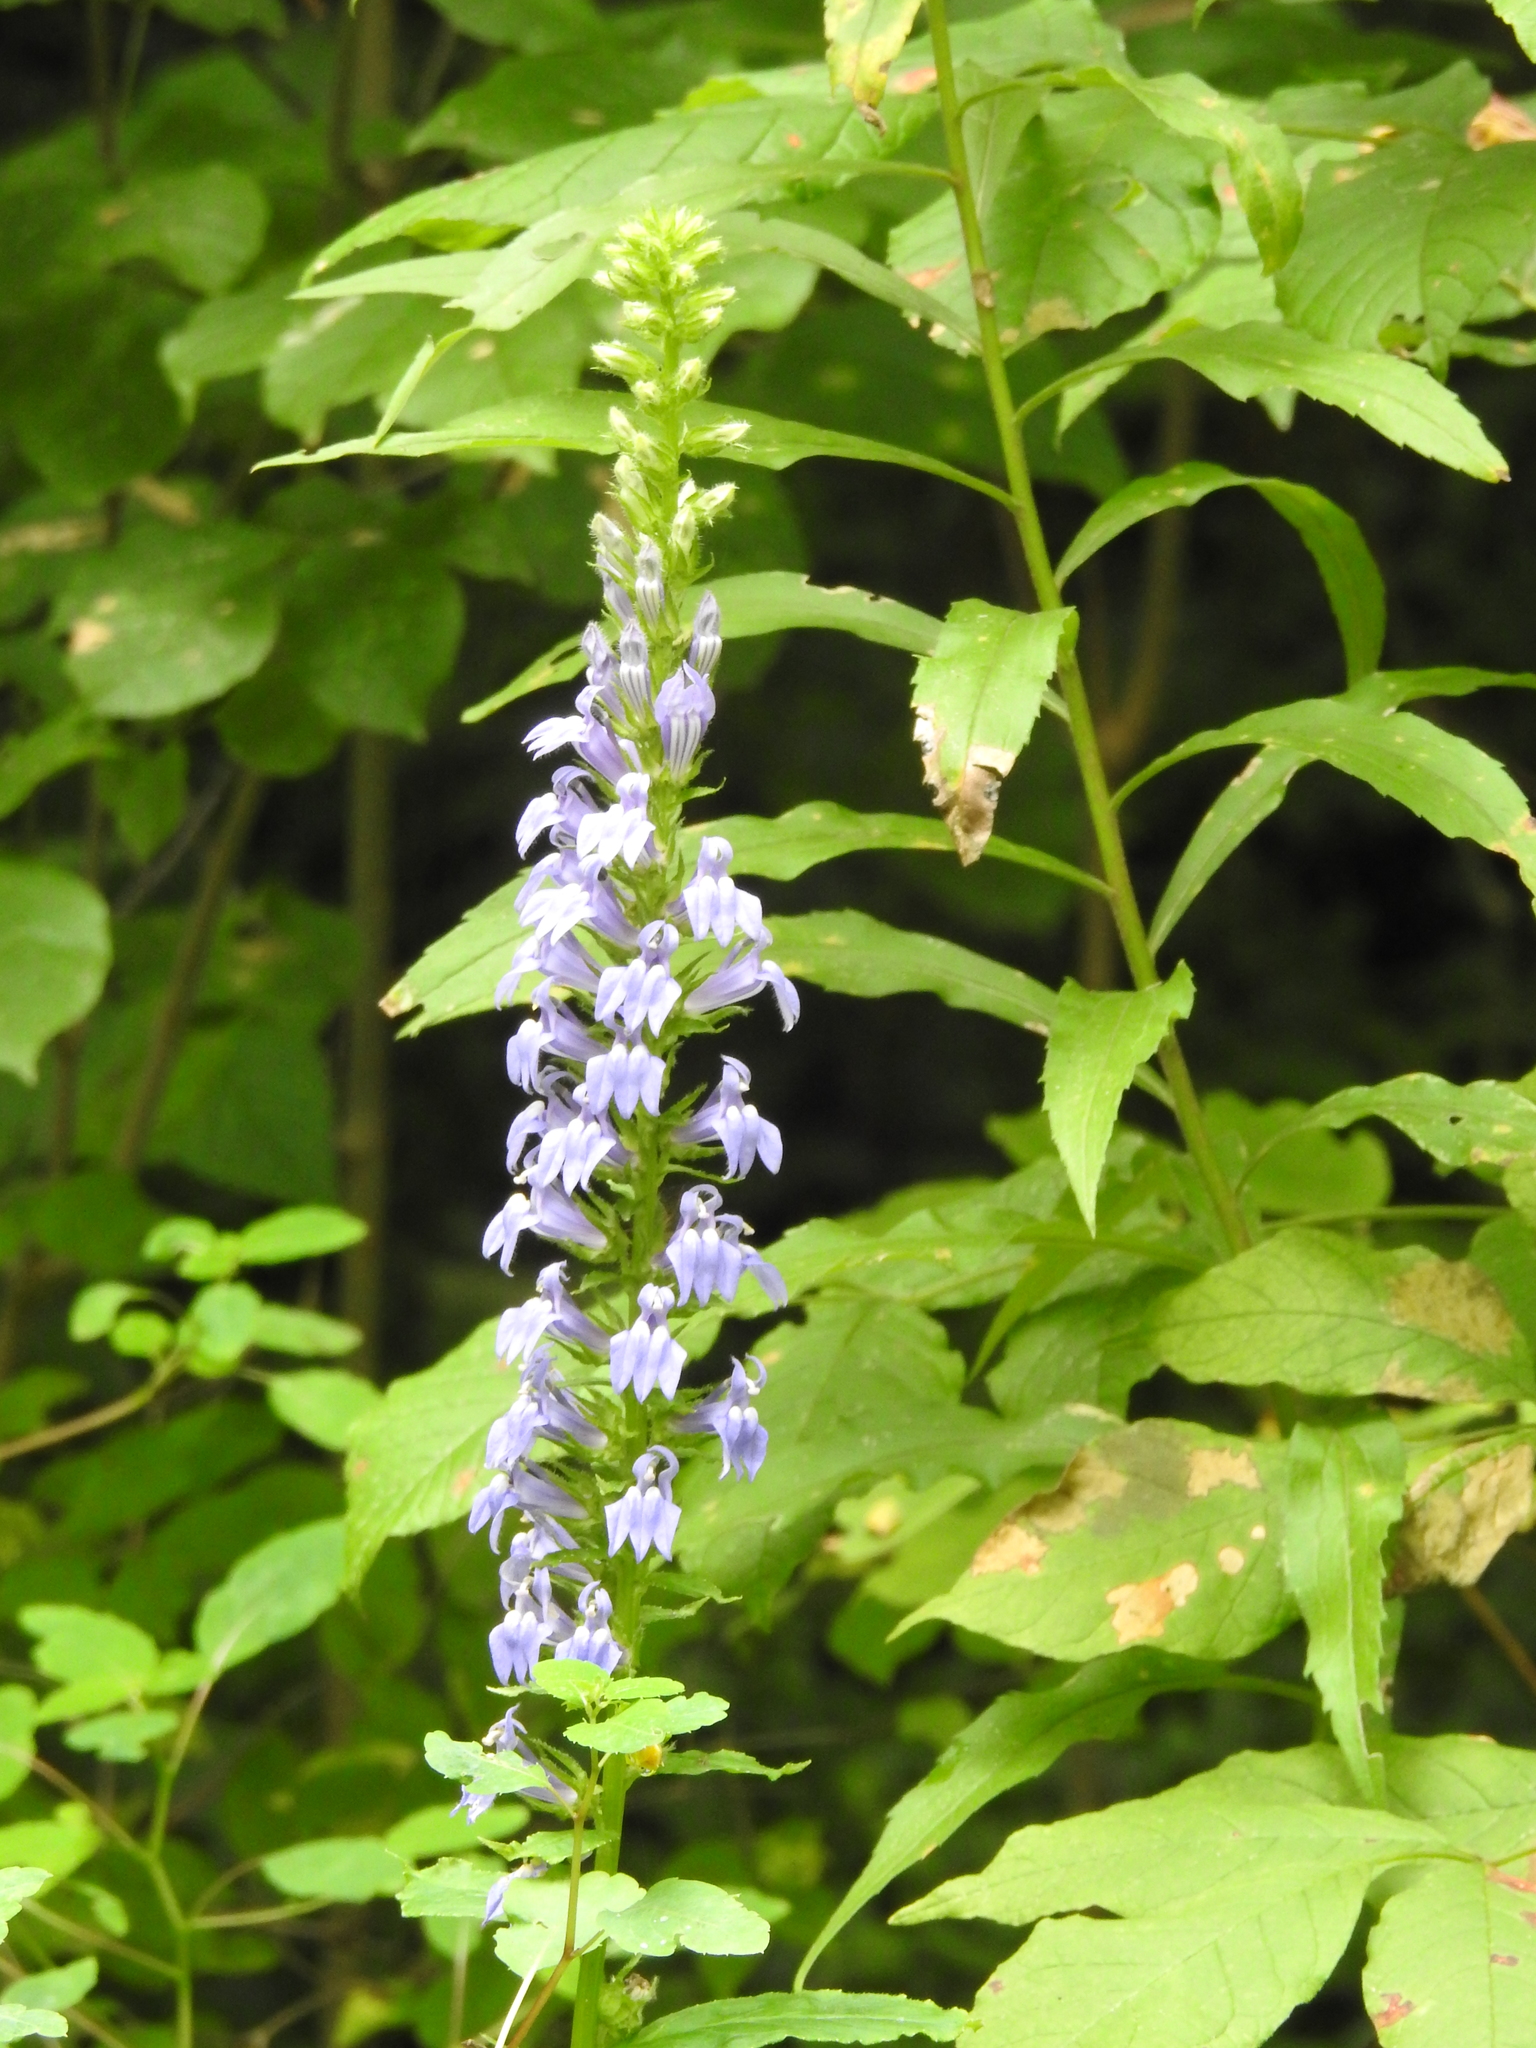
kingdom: Plantae
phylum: Tracheophyta
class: Magnoliopsida
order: Asterales
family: Campanulaceae
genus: Lobelia
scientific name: Lobelia siphilitica
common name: Great lobelia
